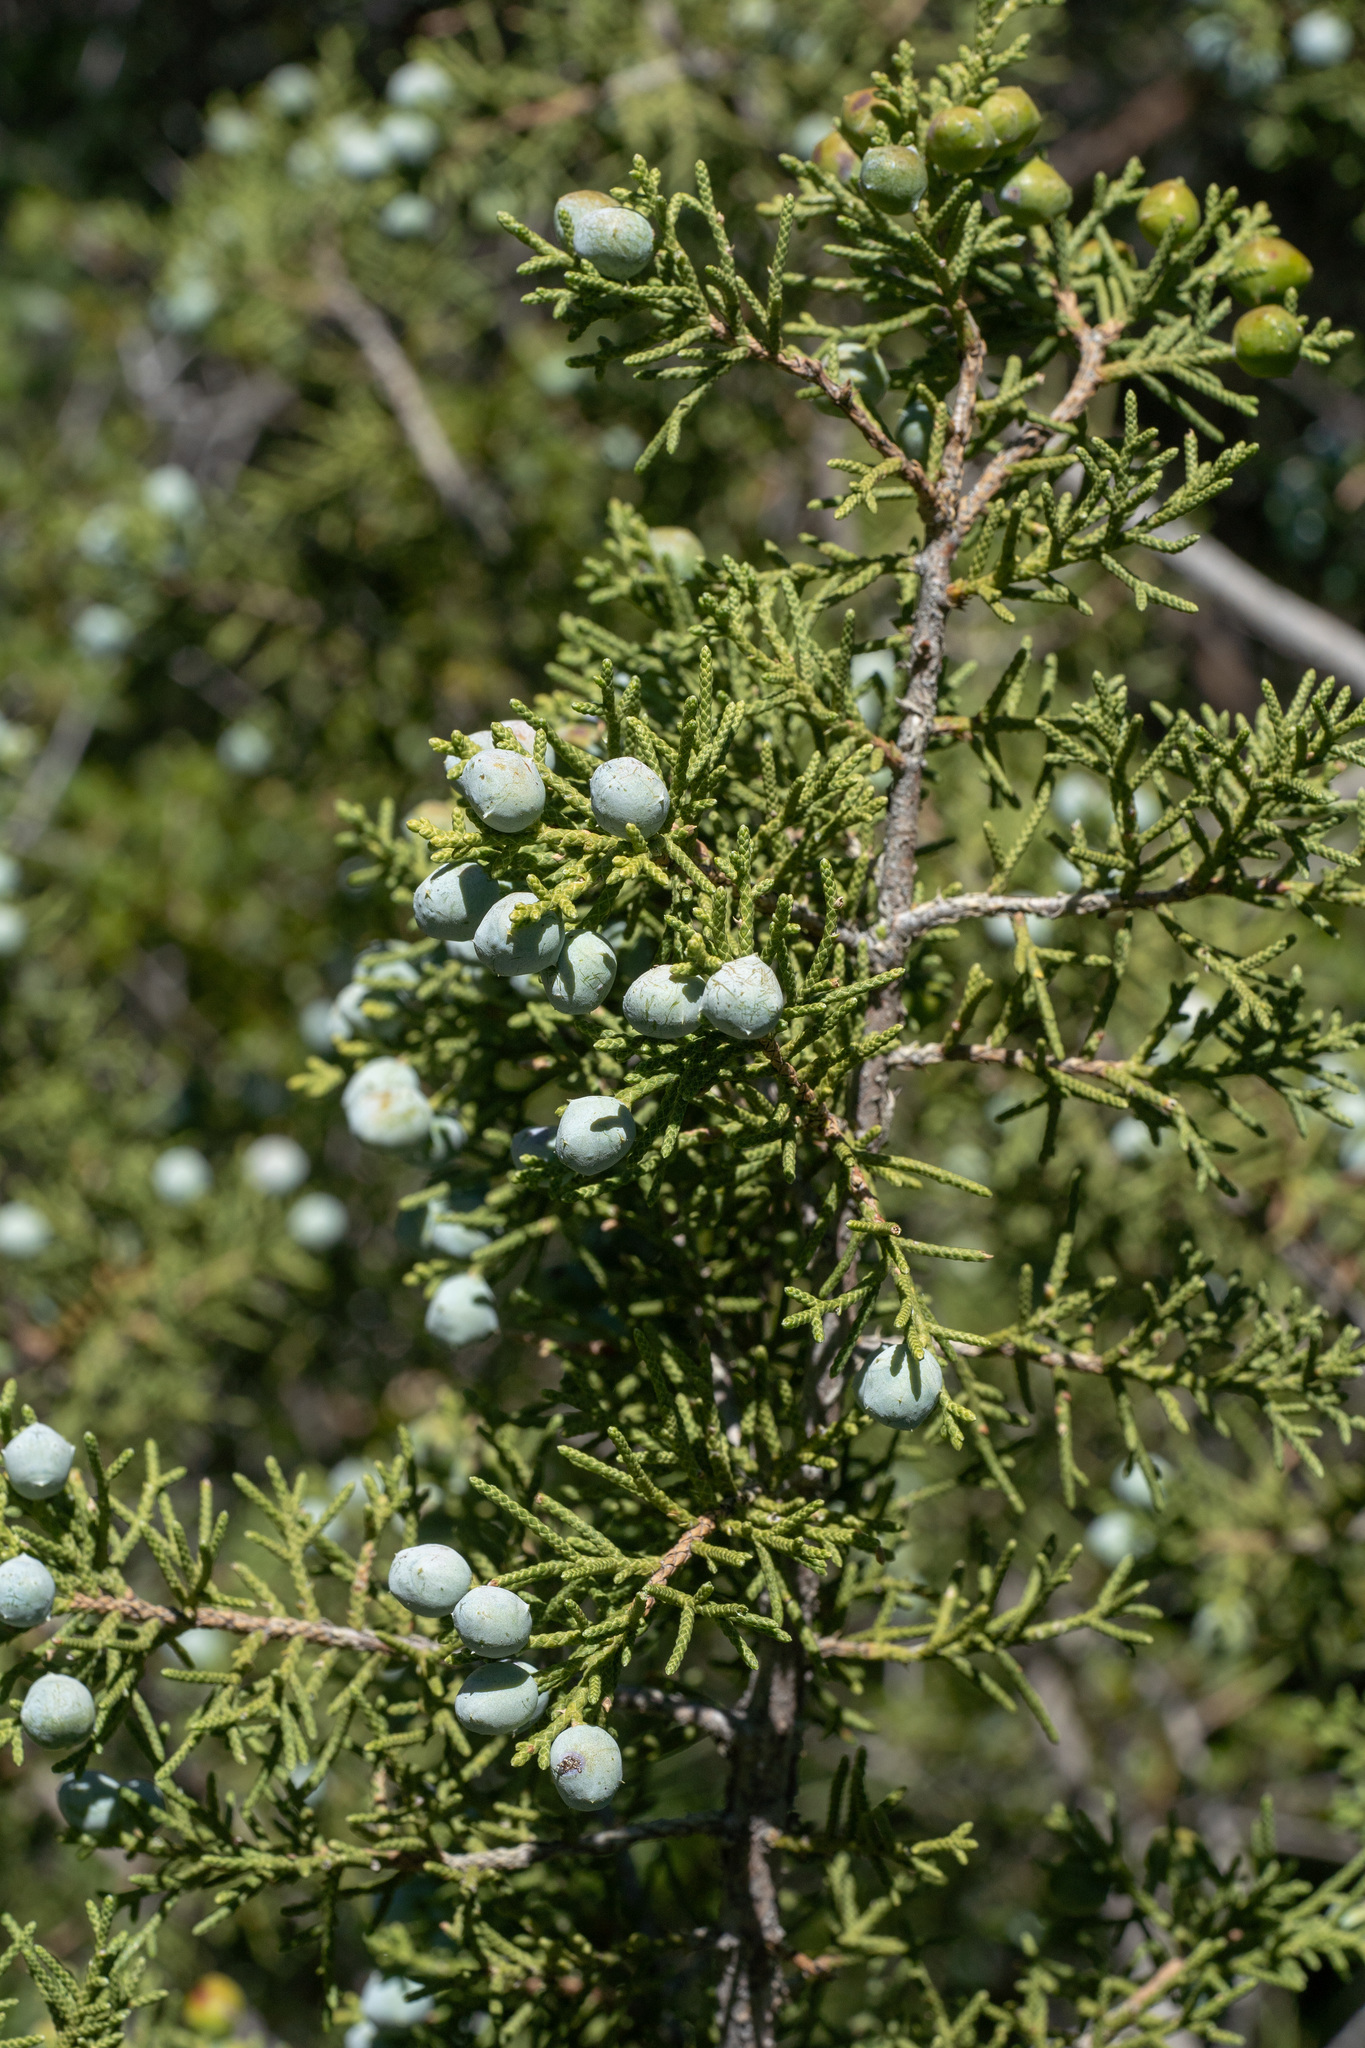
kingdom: Plantae
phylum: Tracheophyta
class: Pinopsida
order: Pinales
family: Cupressaceae
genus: Juniperus
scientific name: Juniperus californica
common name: California juniper
